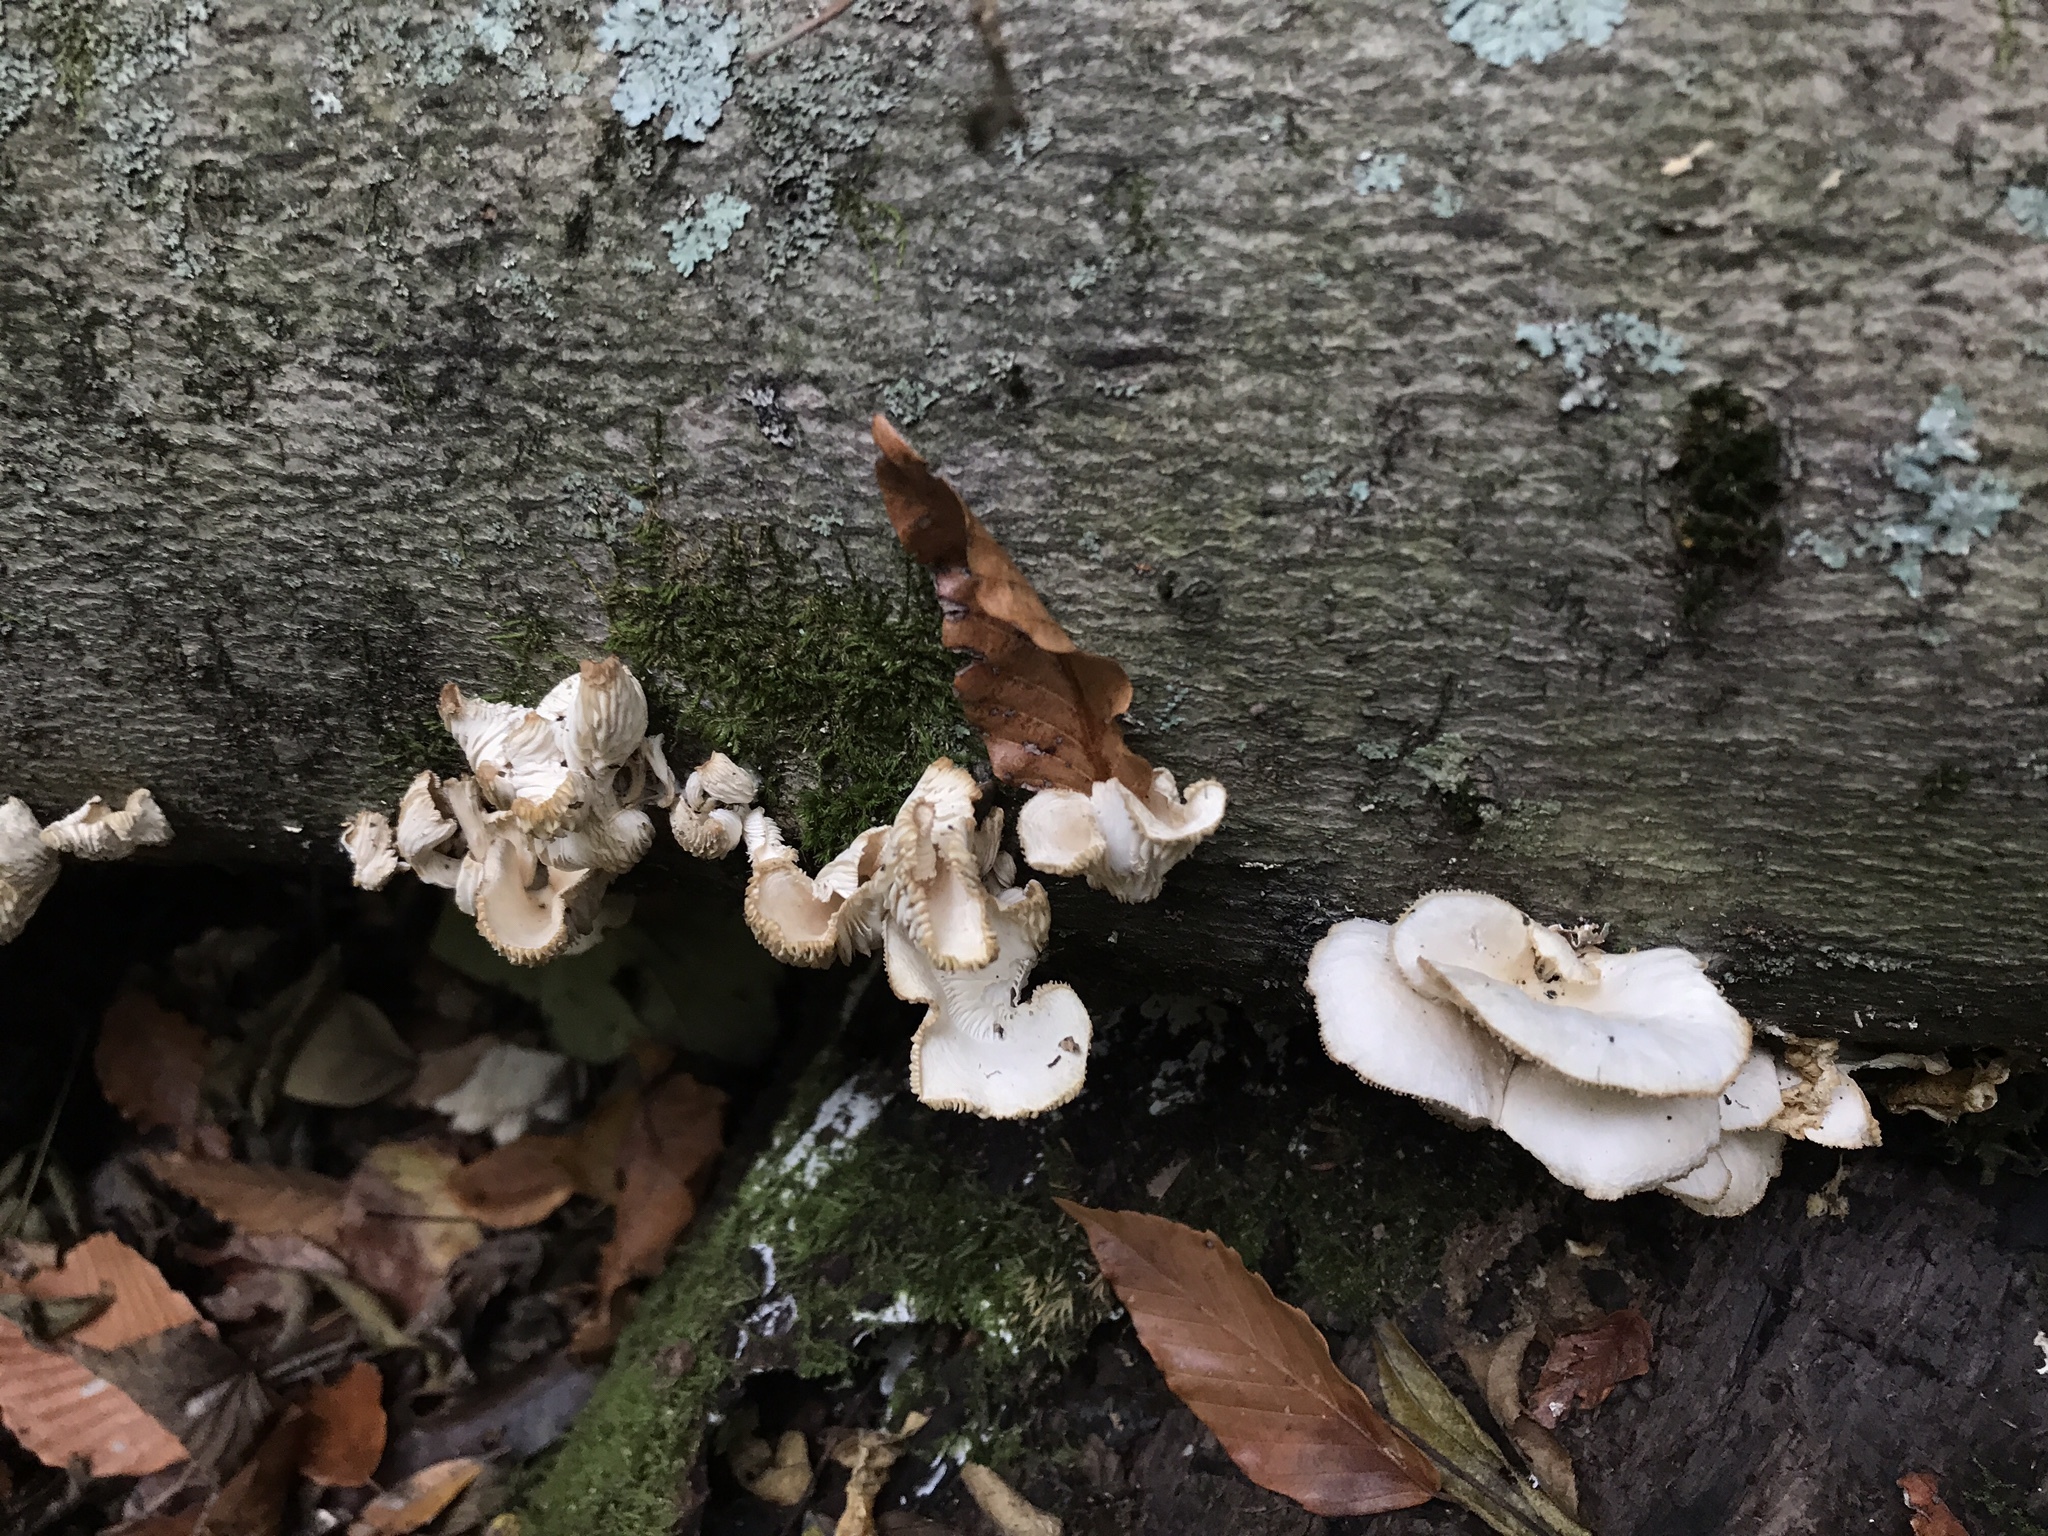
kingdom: Fungi
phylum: Basidiomycota
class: Agaricomycetes
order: Agaricales
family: Pleurotaceae
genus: Pleurotus
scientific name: Pleurotus pulmonarius
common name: Pale oyster
